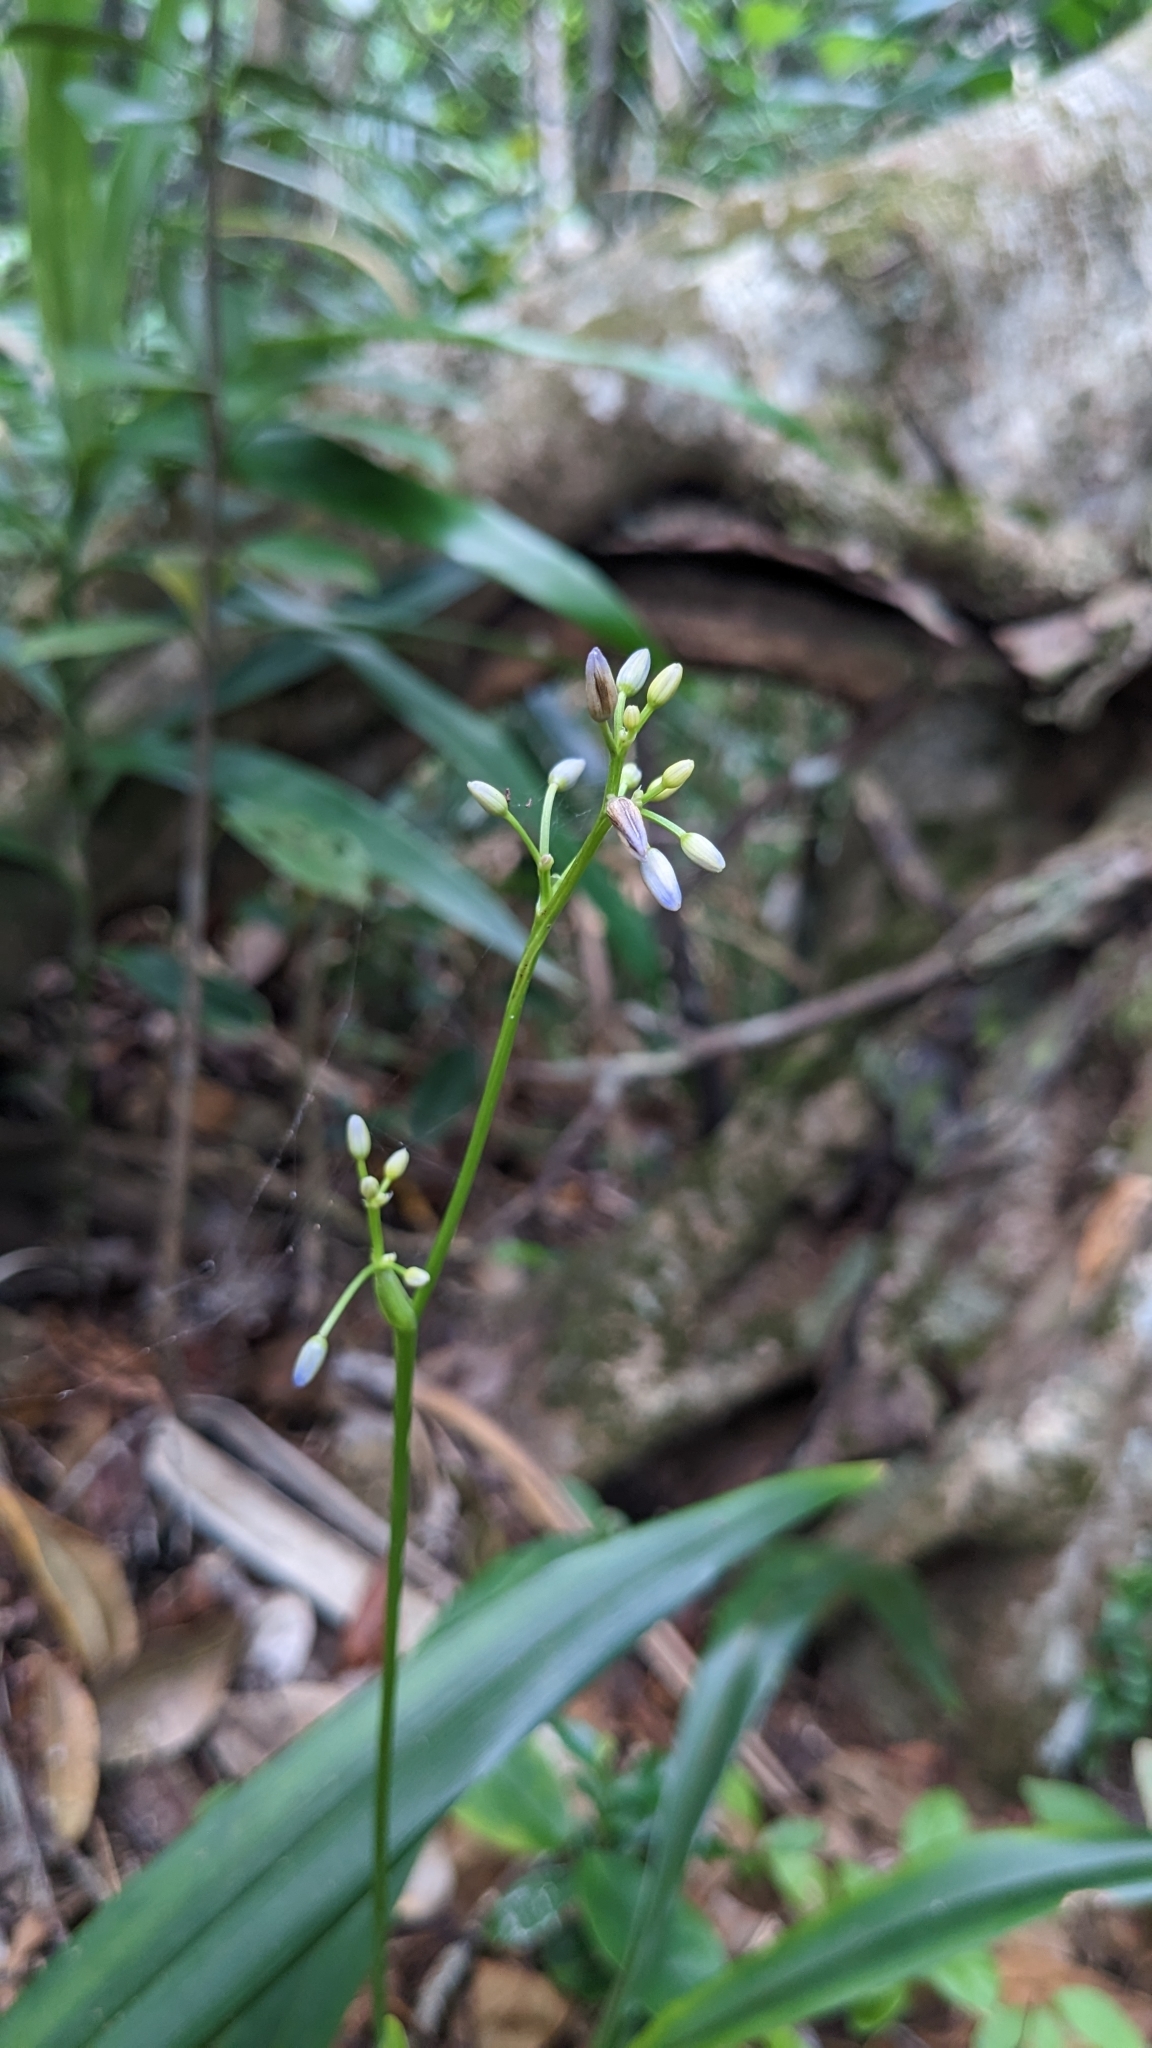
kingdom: Plantae
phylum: Tracheophyta
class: Liliopsida
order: Asparagales
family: Asphodelaceae
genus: Dianella
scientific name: Dianella ensifolia
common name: New zealand lilyplant
